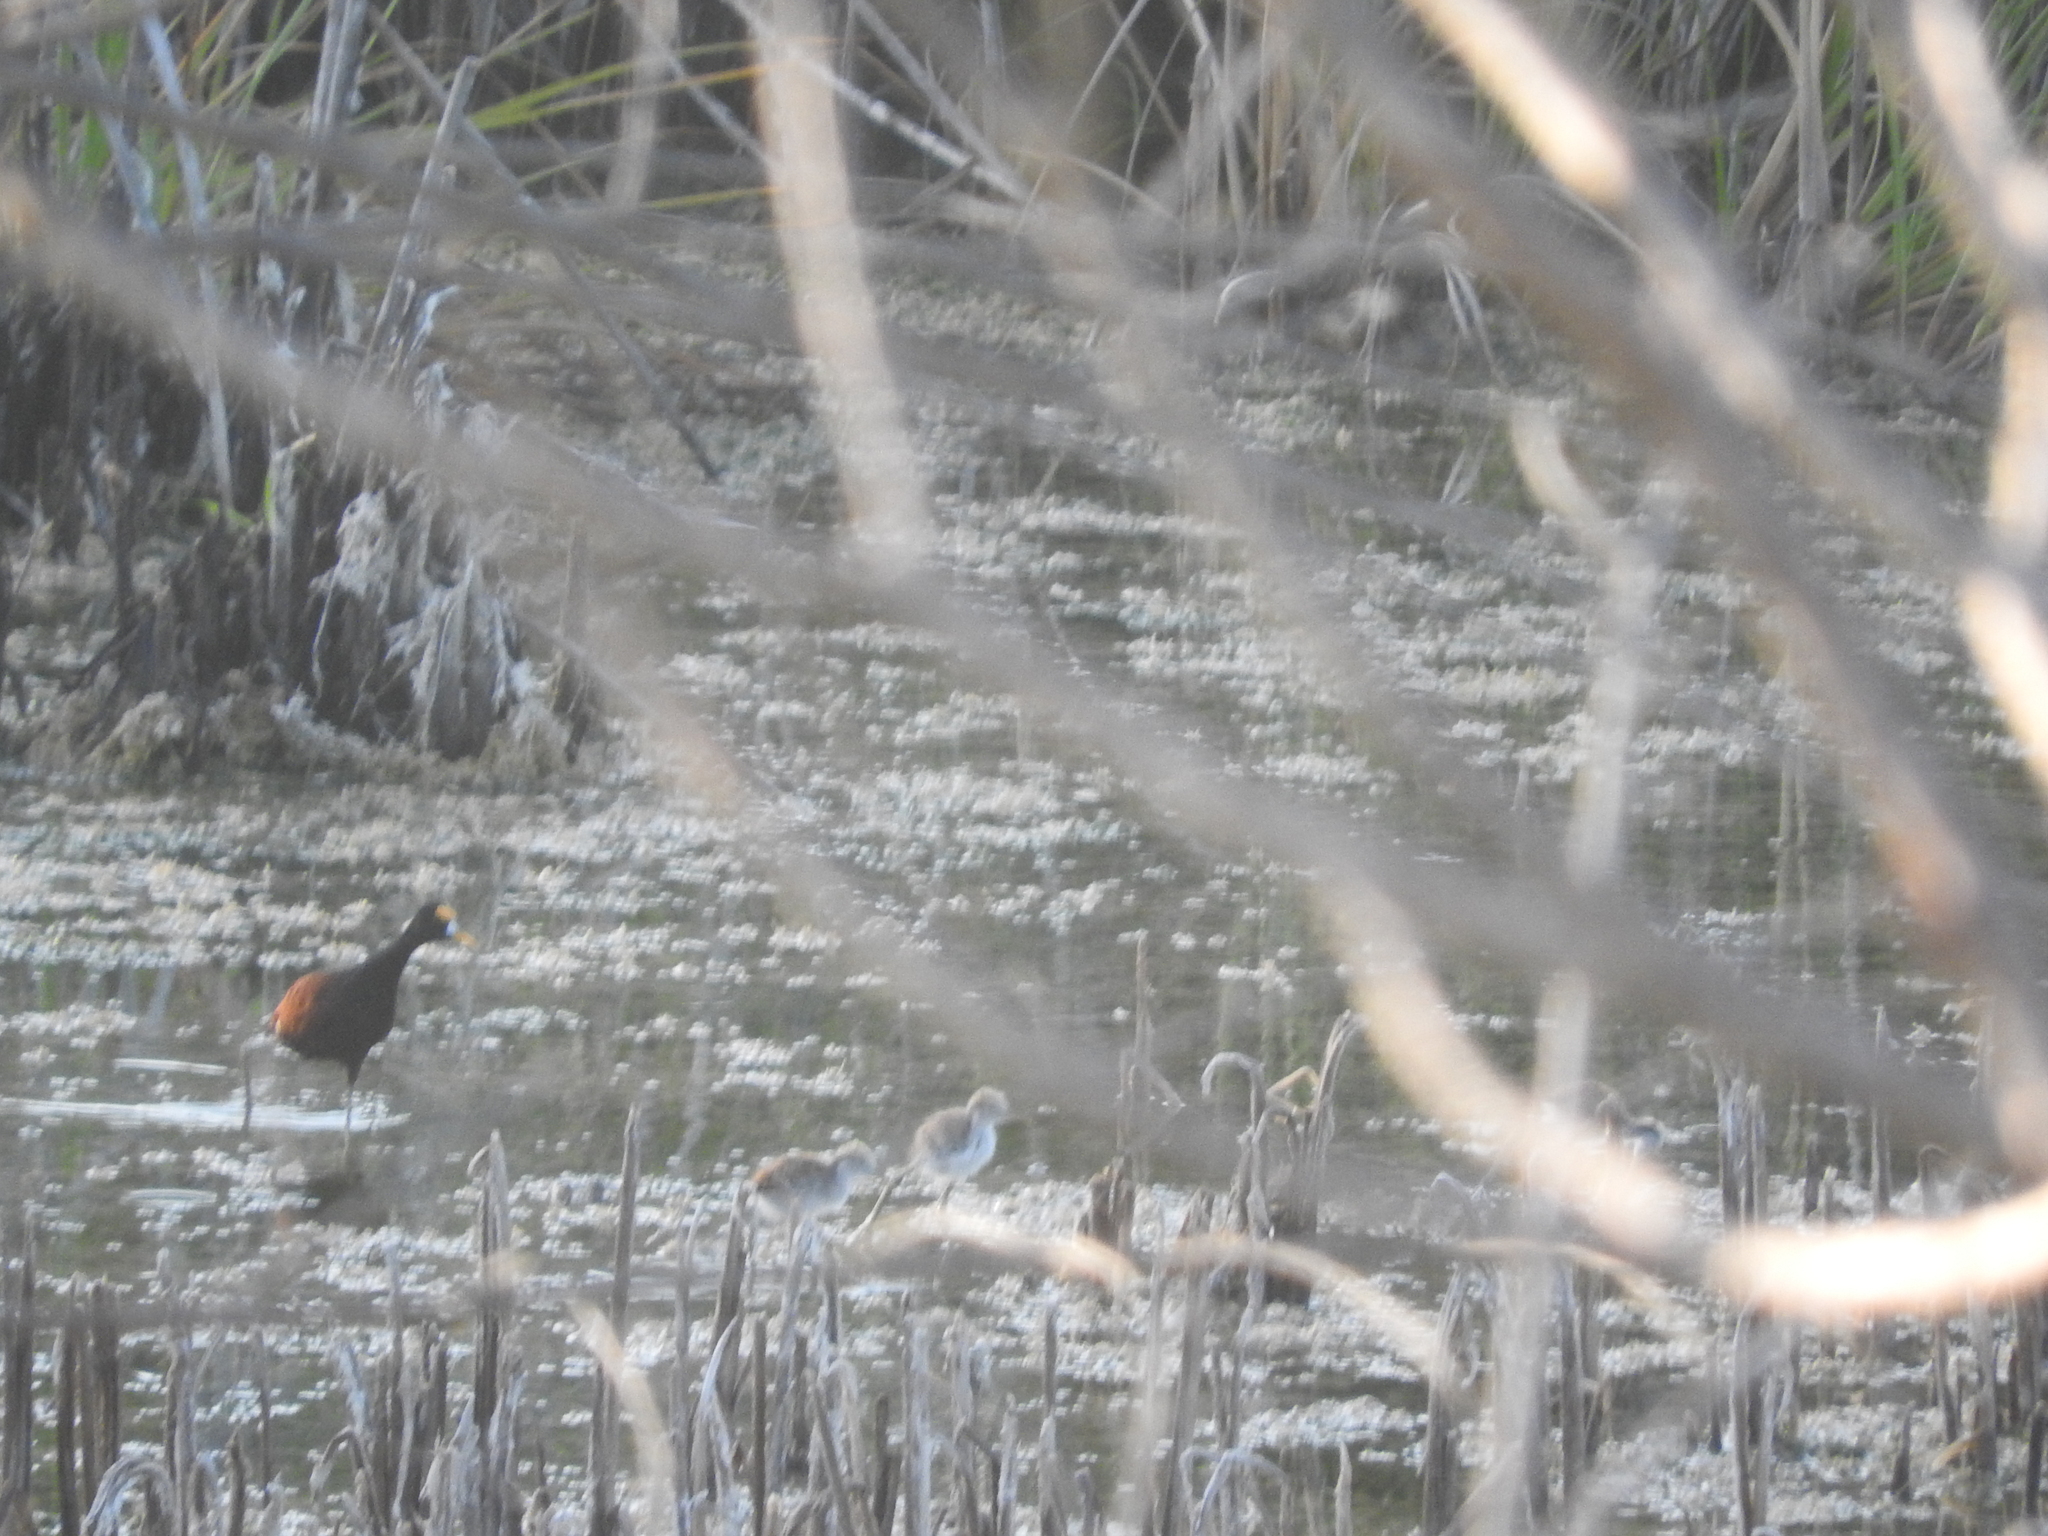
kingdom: Animalia
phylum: Chordata
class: Aves
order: Charadriiformes
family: Jacanidae
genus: Jacana
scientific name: Jacana spinosa
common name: Northern jacana
